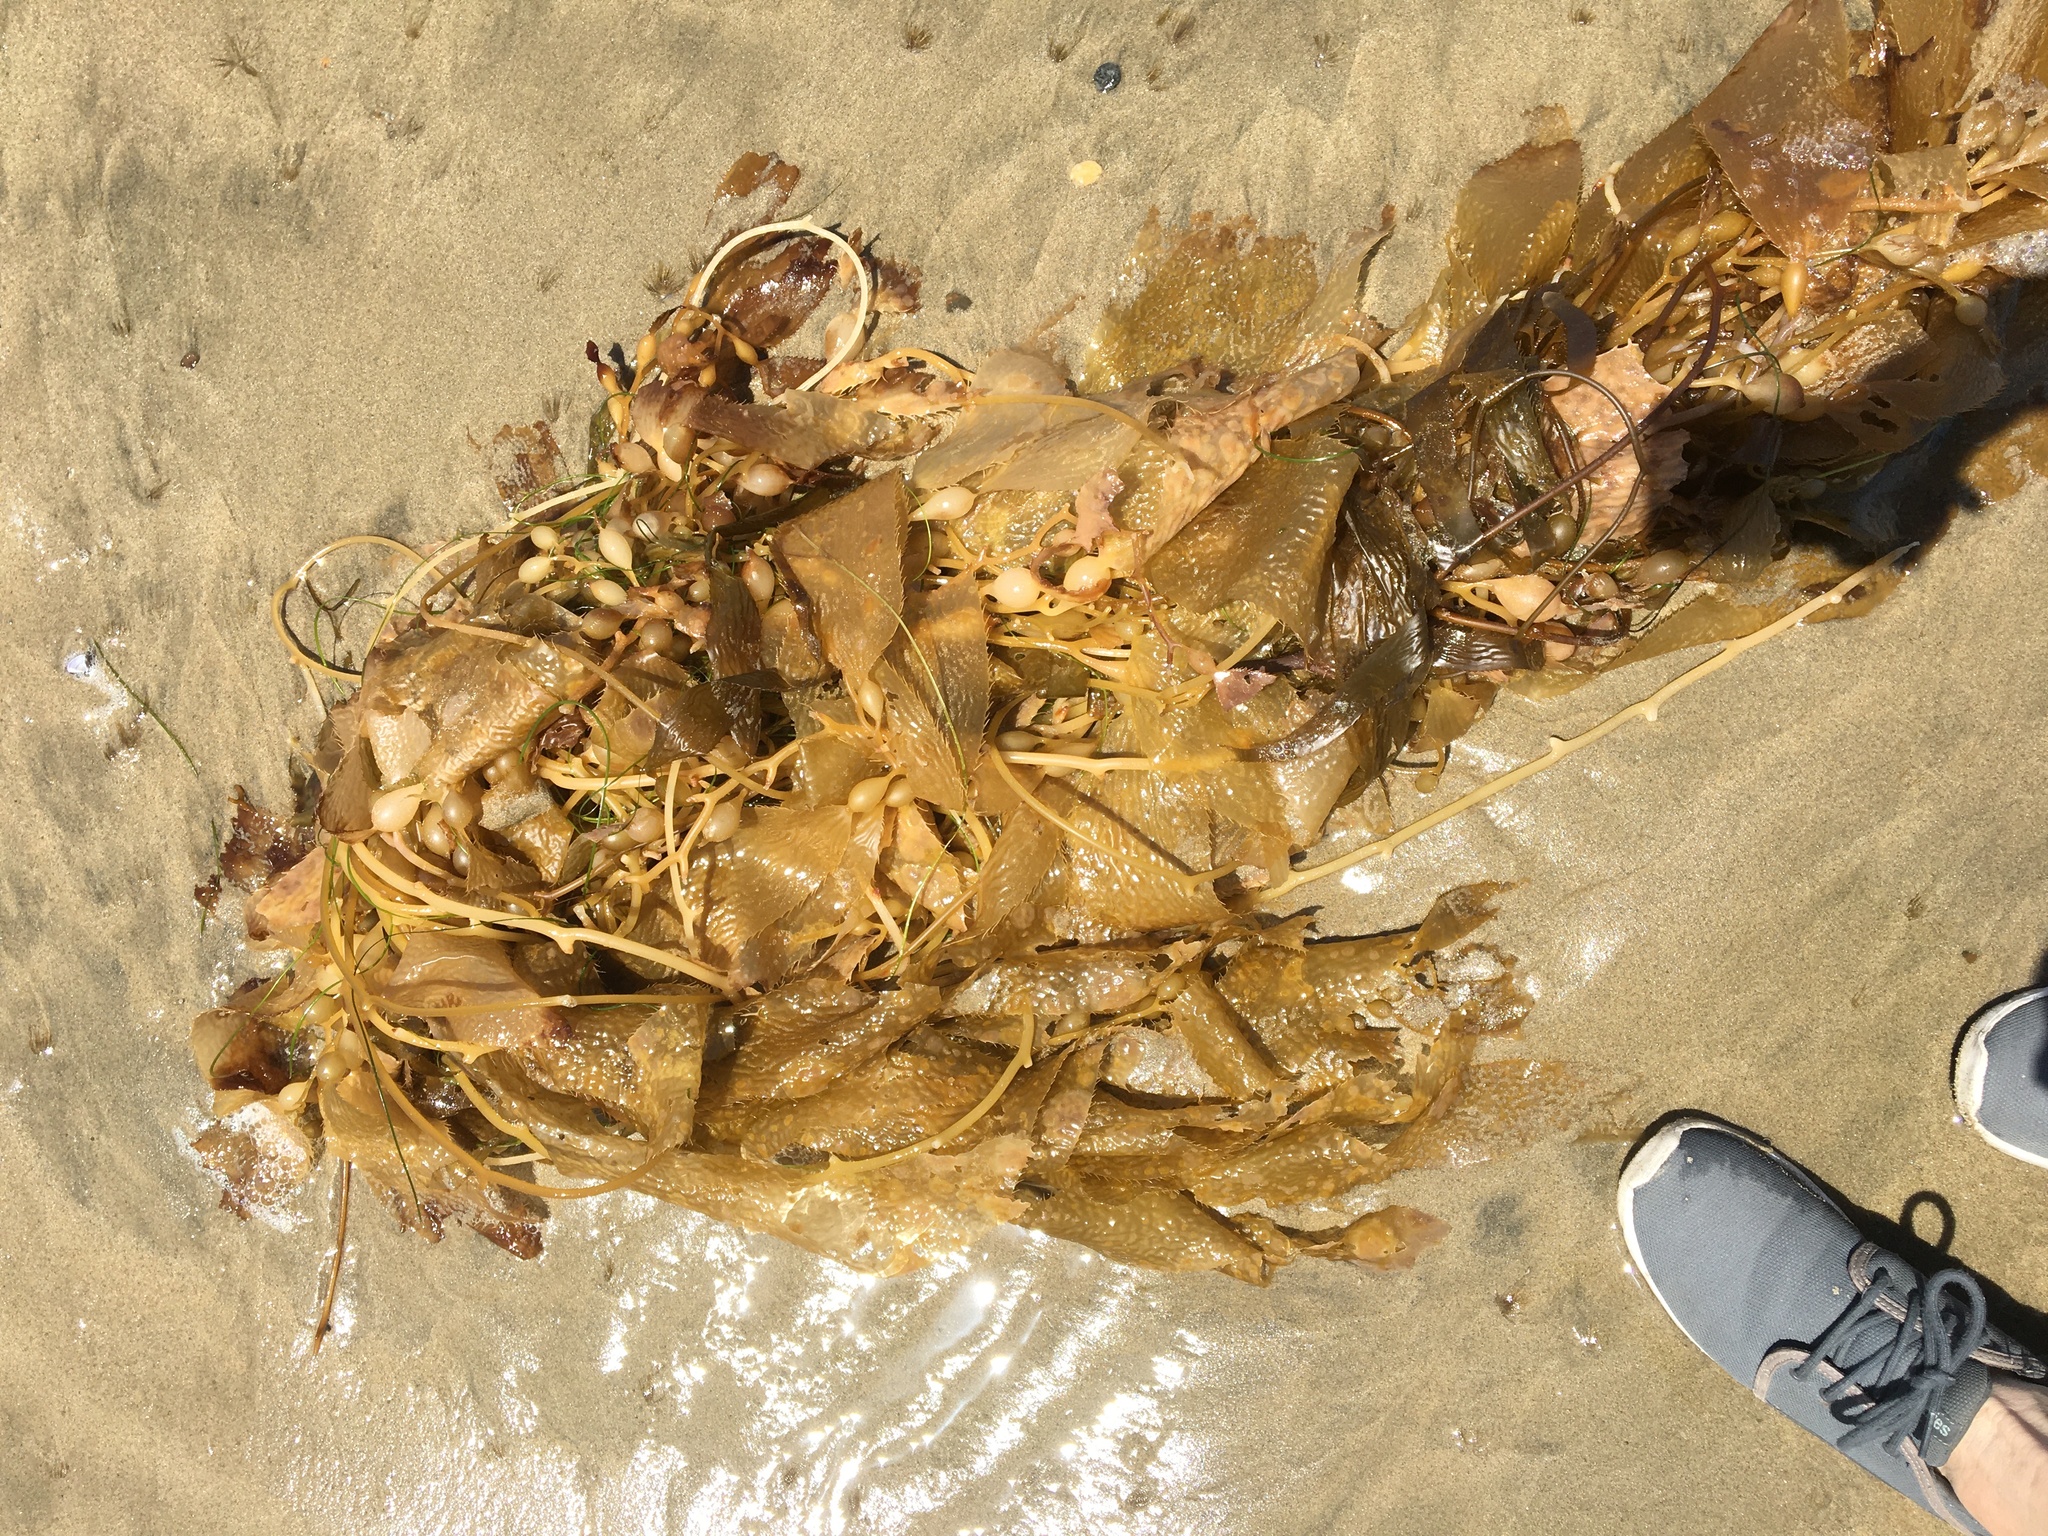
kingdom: Chromista
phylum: Ochrophyta
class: Phaeophyceae
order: Laminariales
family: Laminariaceae
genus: Macrocystis
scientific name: Macrocystis pyrifera
